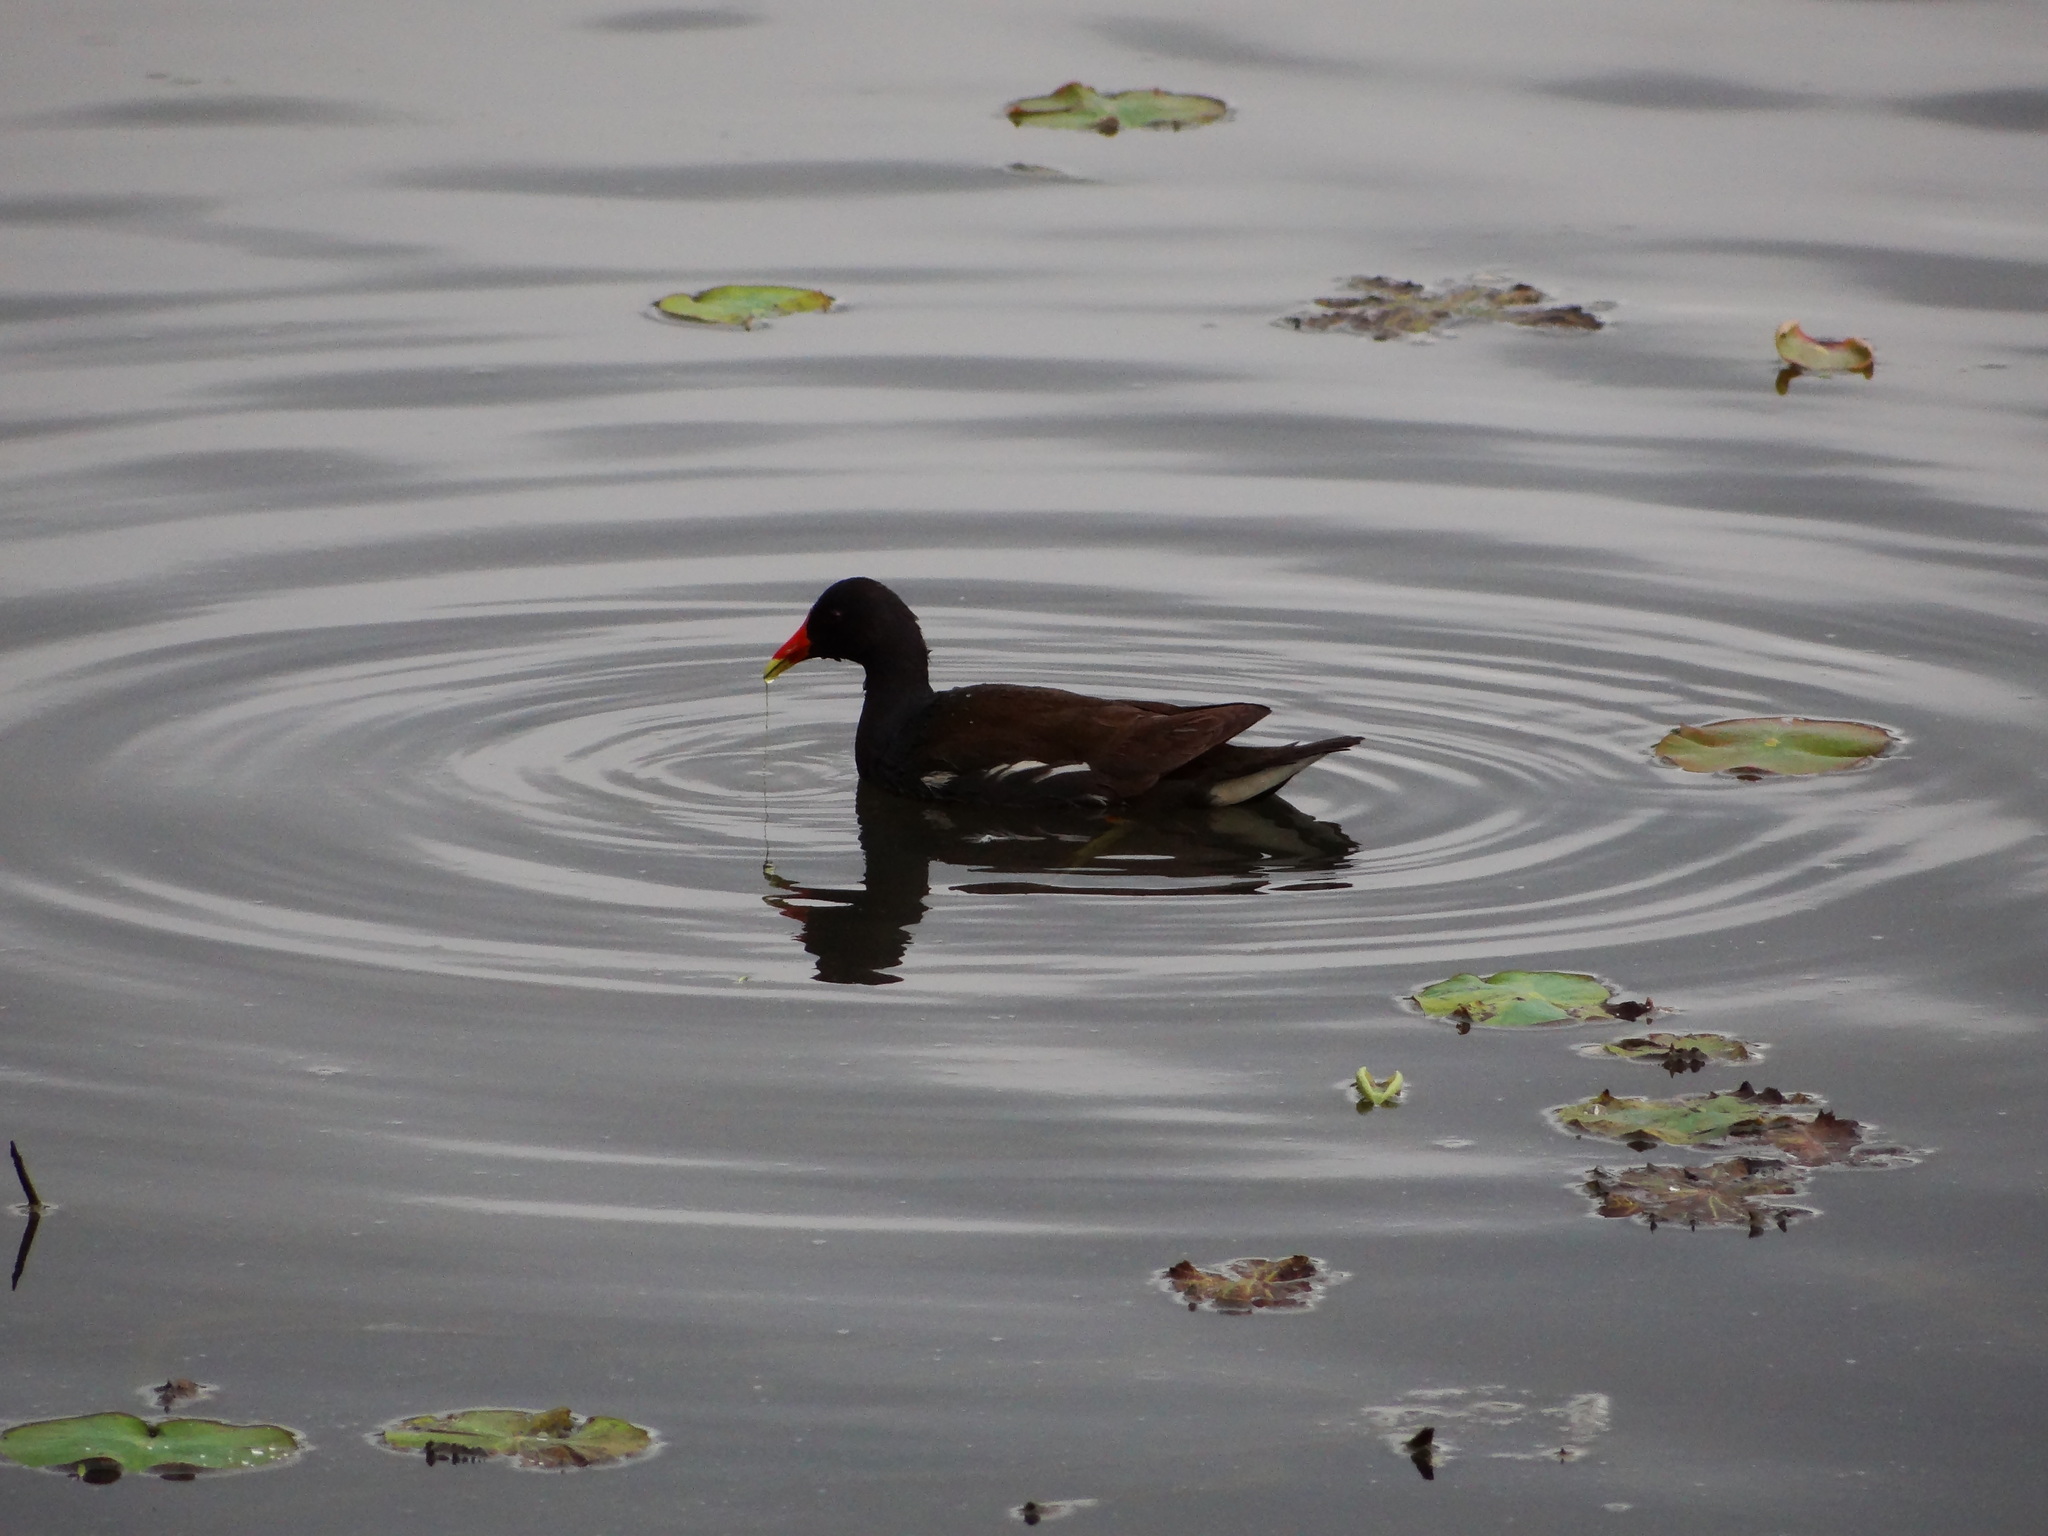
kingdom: Animalia
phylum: Chordata
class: Aves
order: Gruiformes
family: Rallidae
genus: Gallinula
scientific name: Gallinula chloropus
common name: Common moorhen
